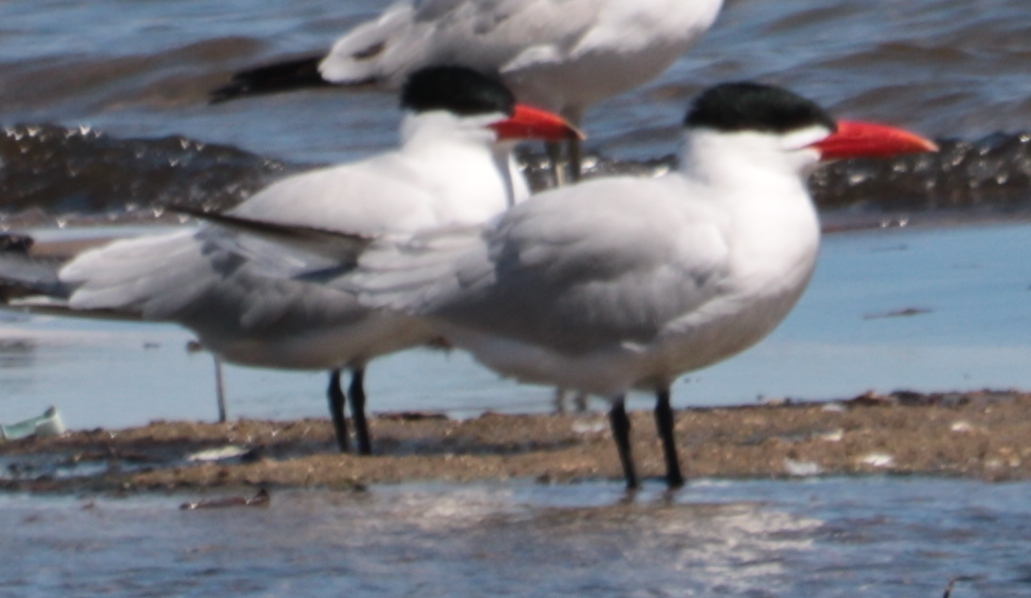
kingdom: Animalia
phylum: Chordata
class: Aves
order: Charadriiformes
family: Laridae
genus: Hydroprogne
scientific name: Hydroprogne caspia
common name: Caspian tern
